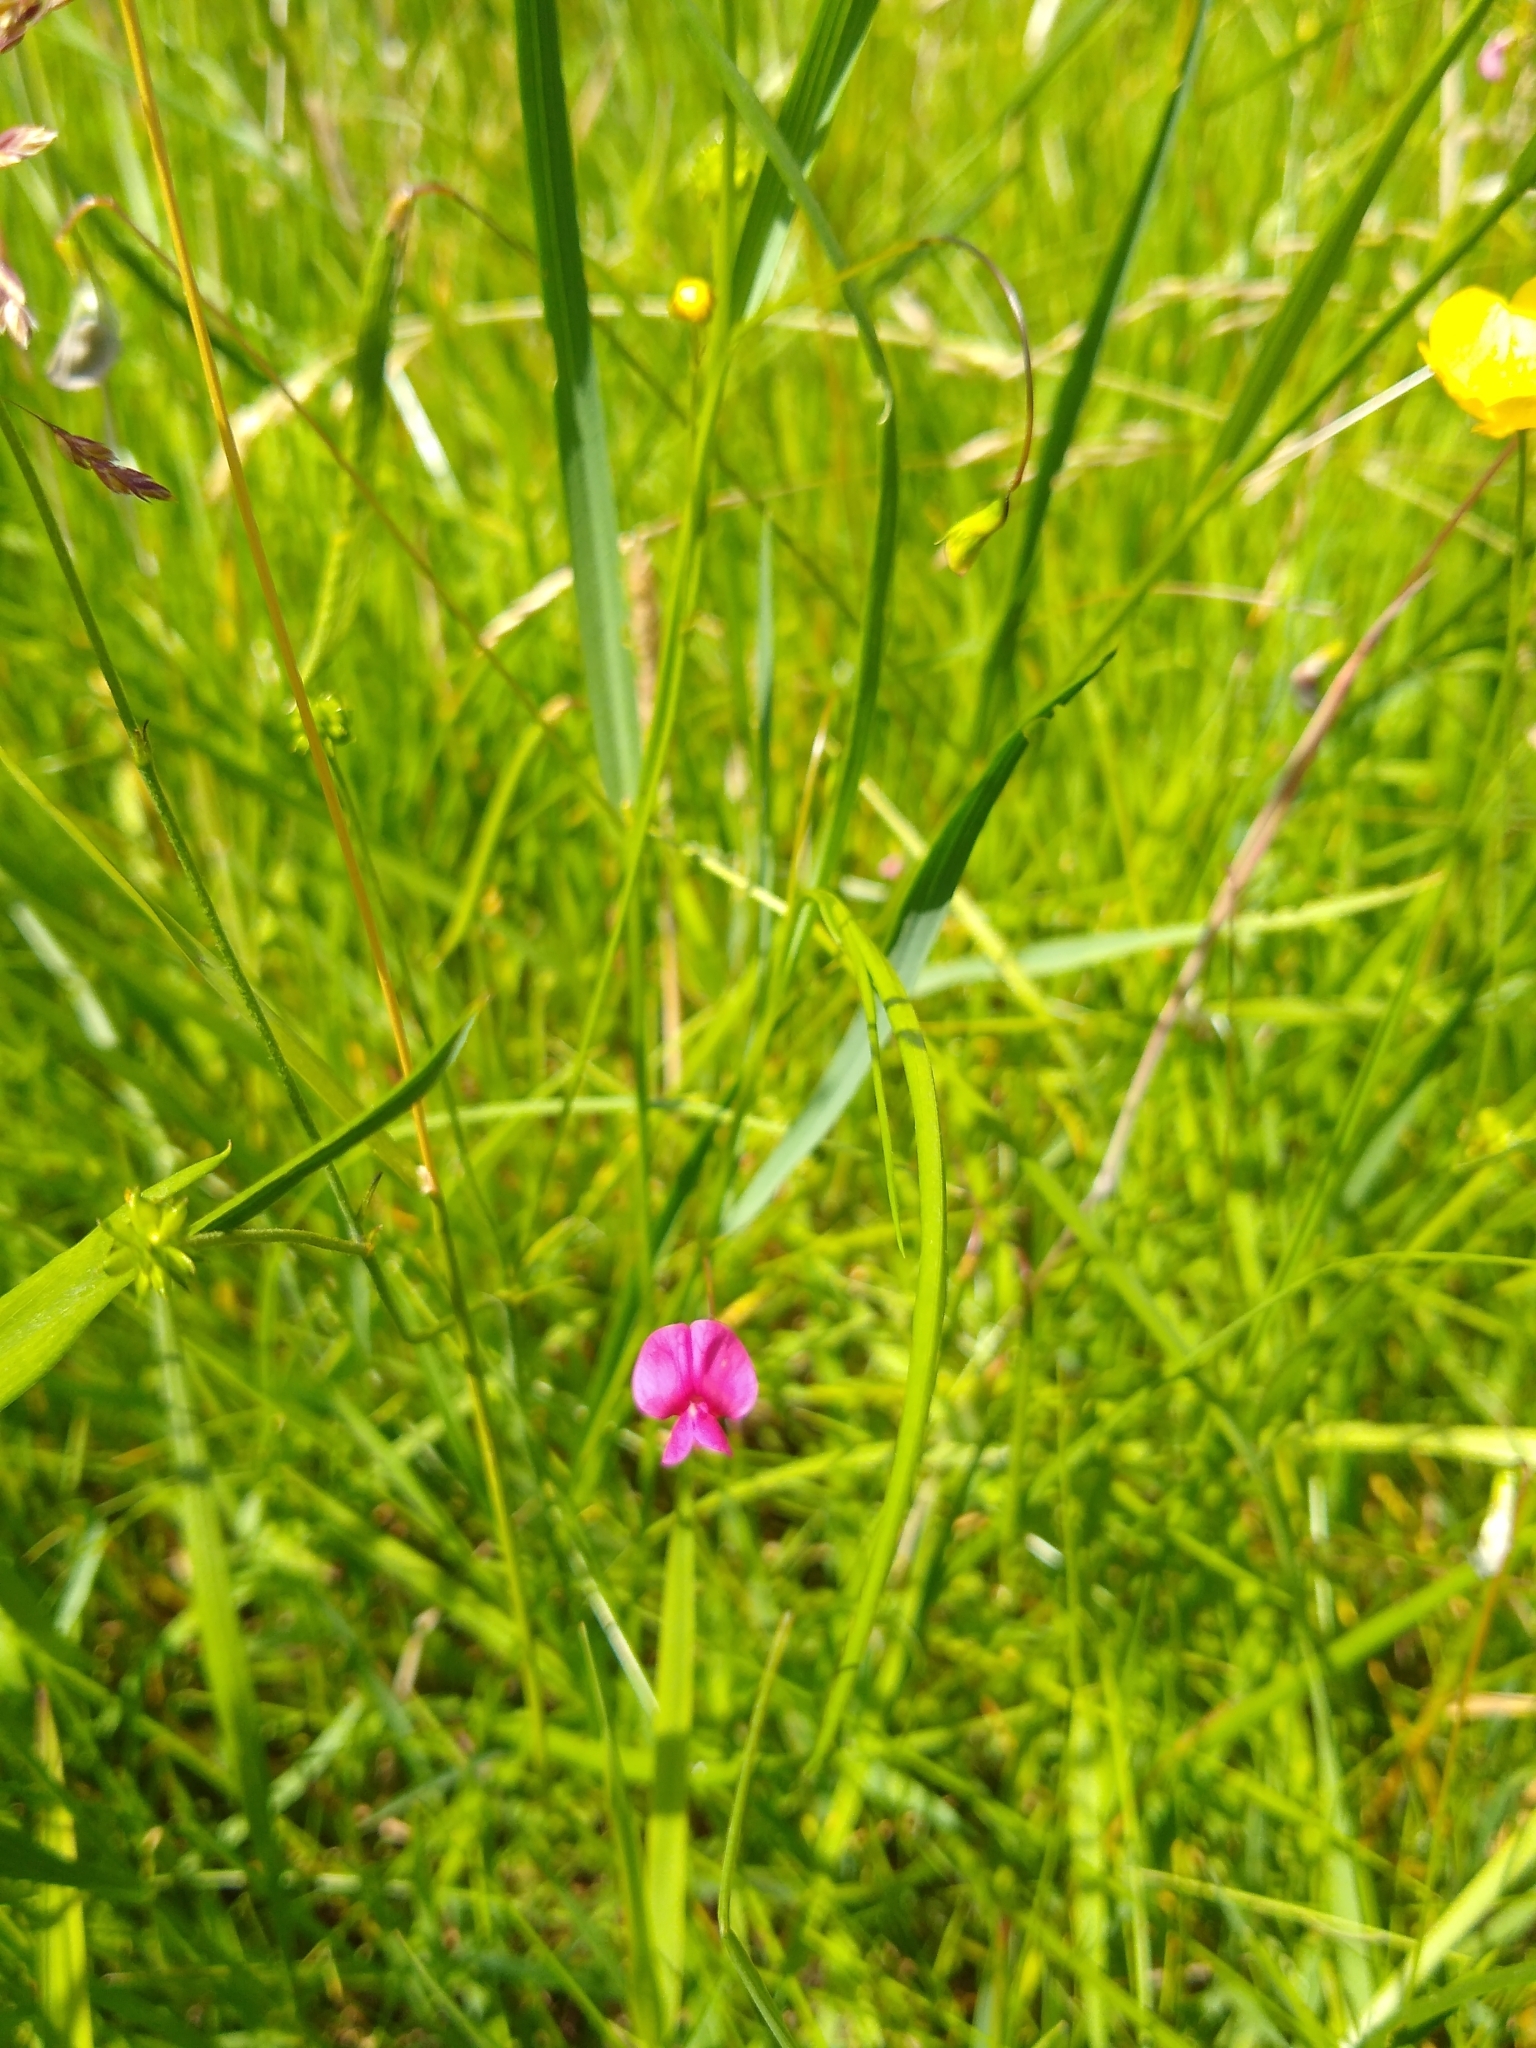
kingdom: Plantae
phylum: Tracheophyta
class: Magnoliopsida
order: Fabales
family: Fabaceae
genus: Lathyrus
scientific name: Lathyrus nissolia
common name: Grass vetchling
